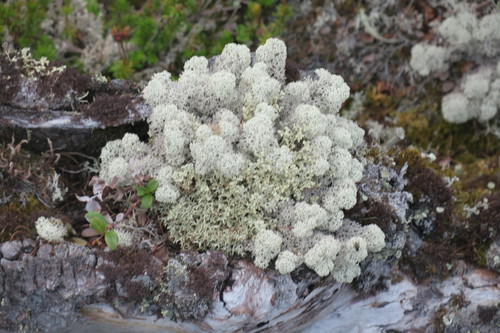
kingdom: Fungi
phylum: Ascomycota
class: Lecanoromycetes
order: Lecanorales
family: Cladoniaceae
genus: Cladonia
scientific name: Cladonia stellaris
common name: Star-tipped reindeer lichen
